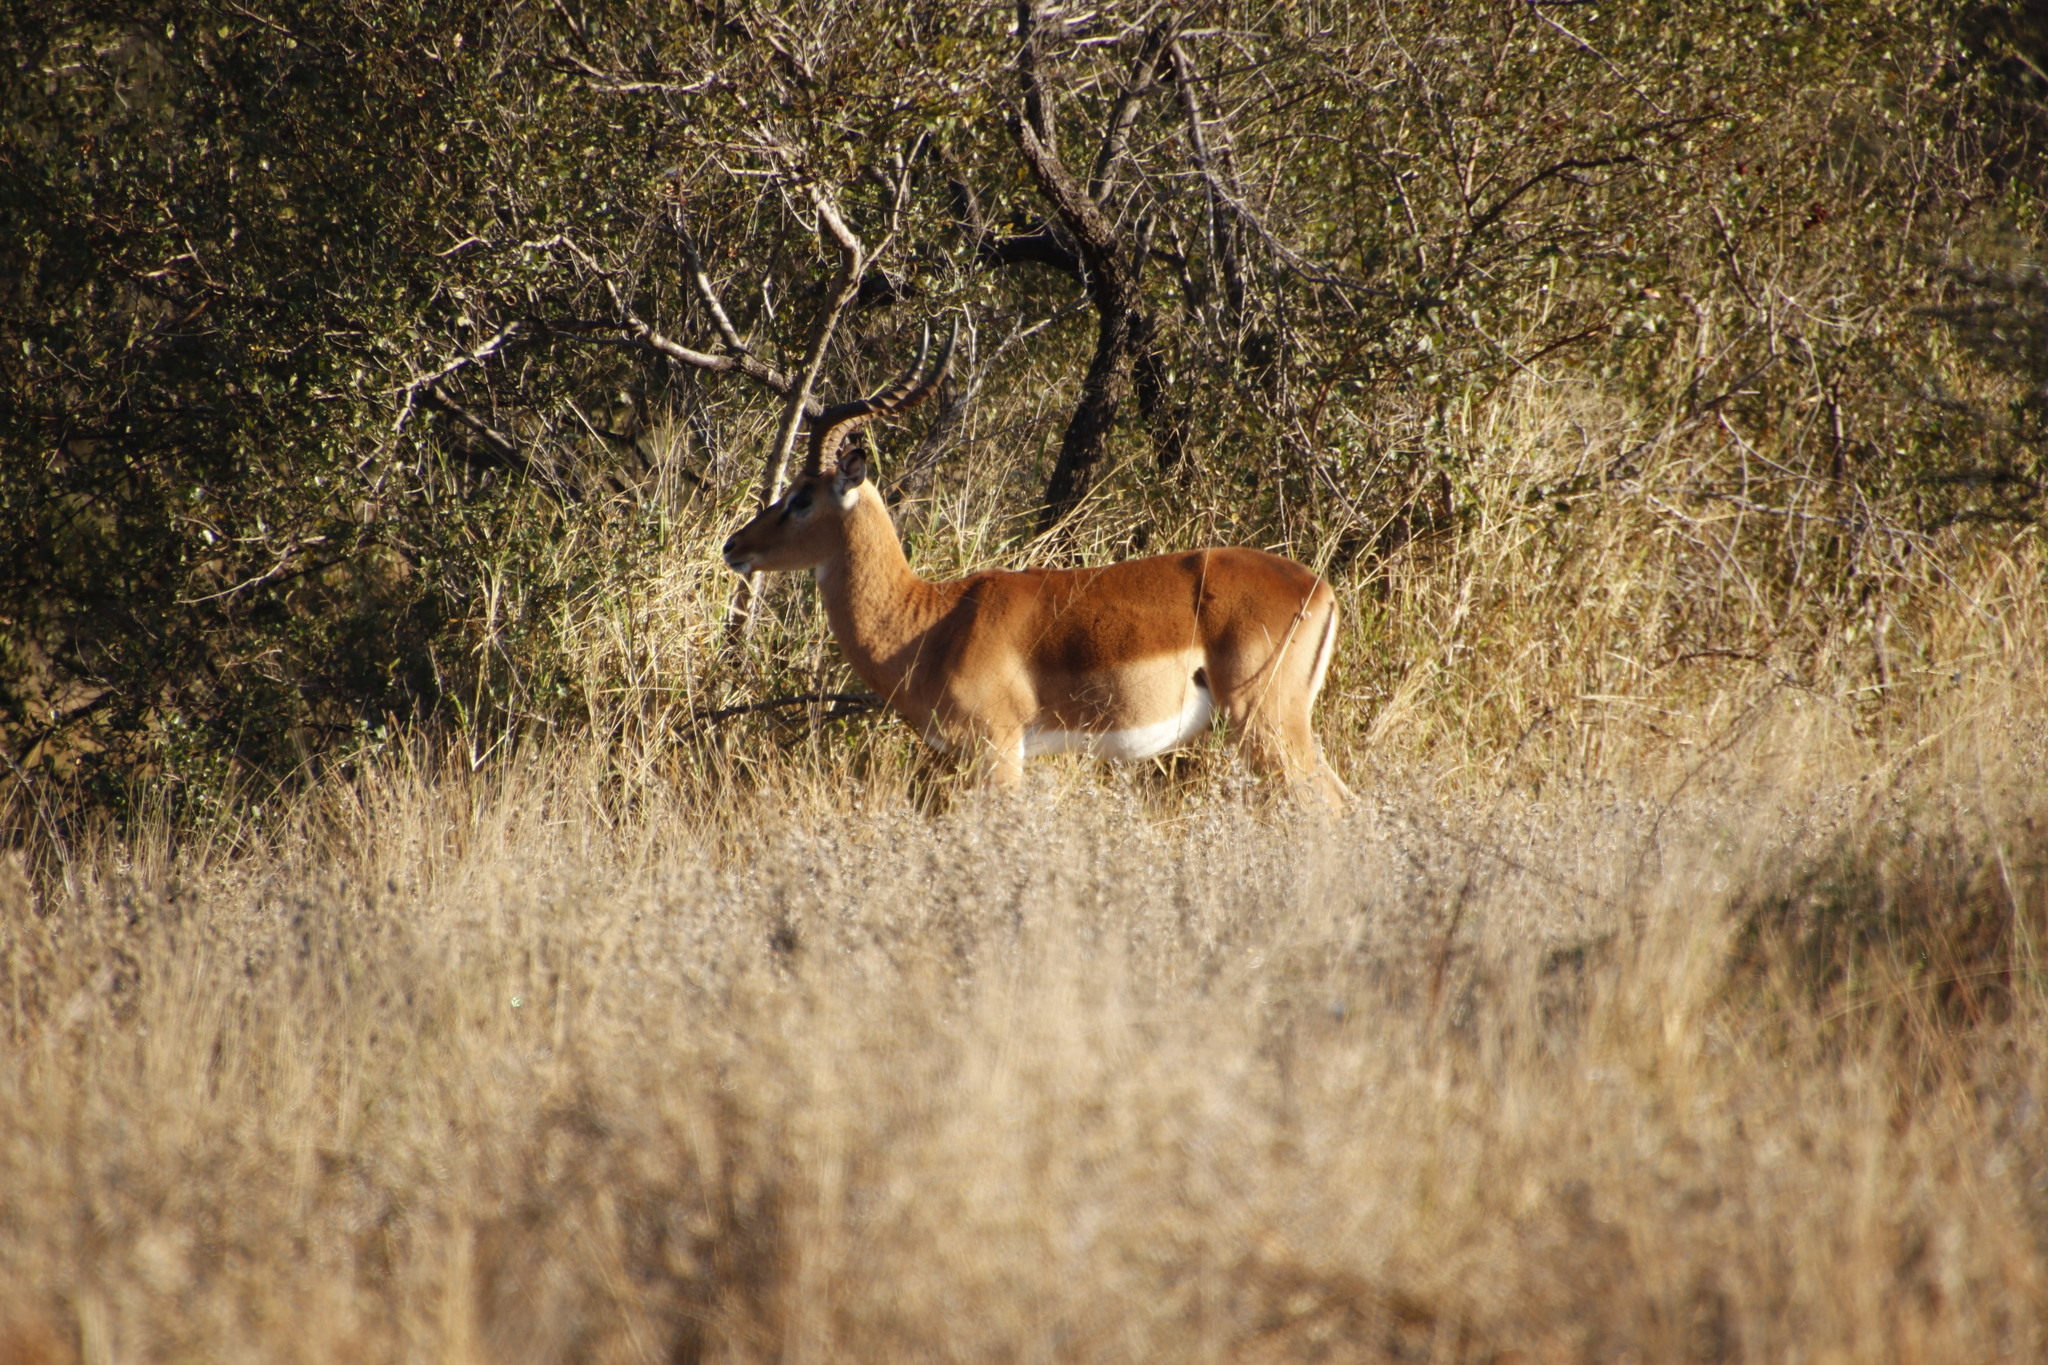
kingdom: Animalia
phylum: Chordata
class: Mammalia
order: Artiodactyla
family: Bovidae
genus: Aepyceros
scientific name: Aepyceros melampus
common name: Impala
